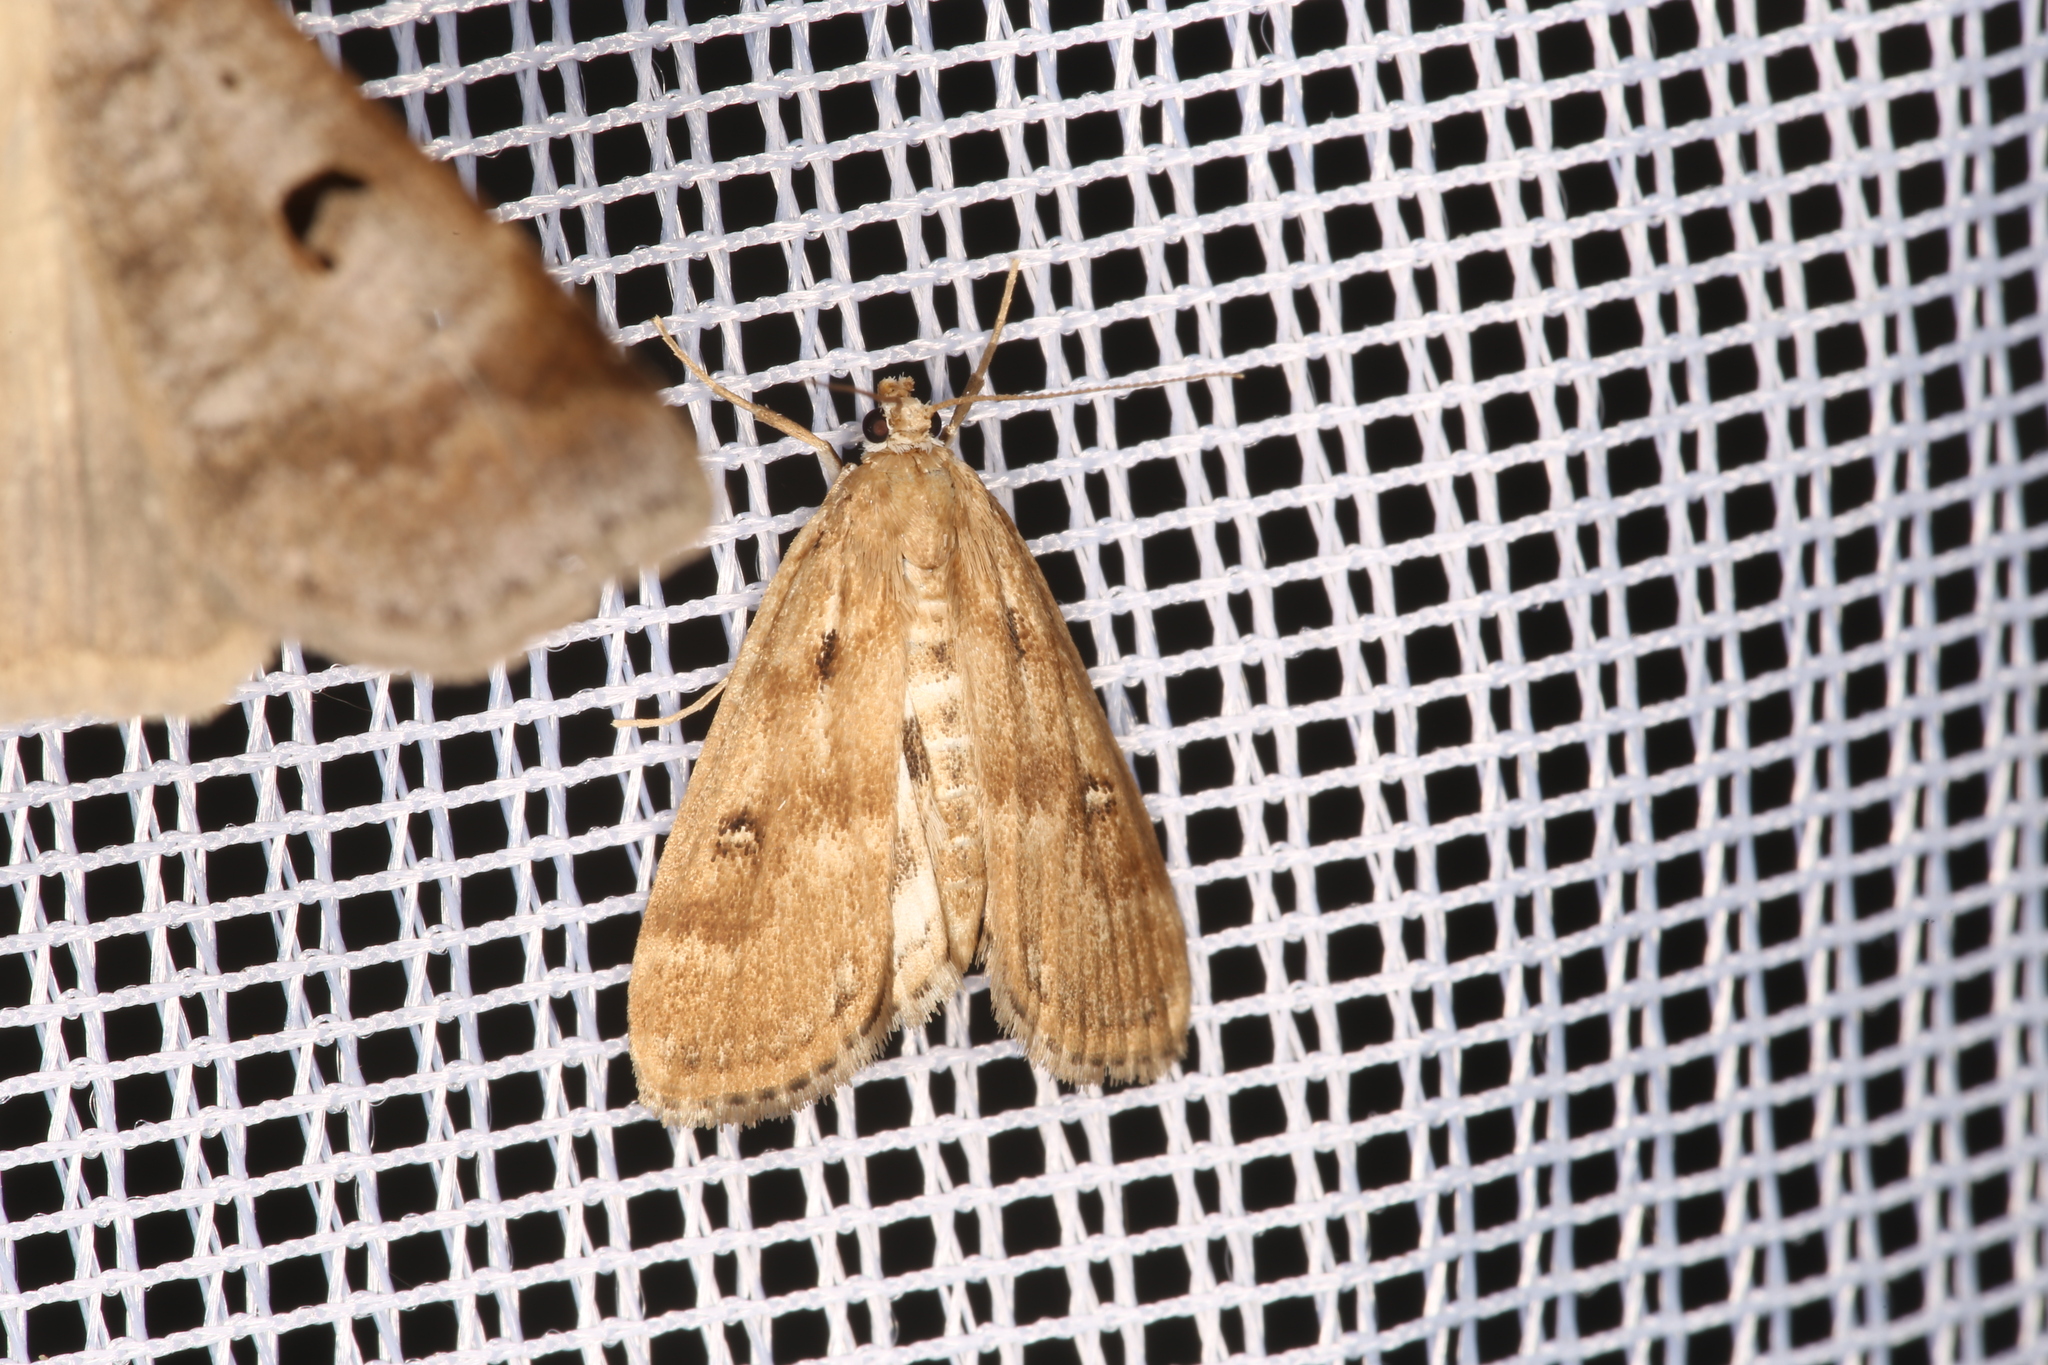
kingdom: Animalia
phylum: Arthropoda
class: Insecta
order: Lepidoptera
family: Crambidae
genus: Parapoynx
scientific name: Parapoynx stratiotata
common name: Ringed china-mark
